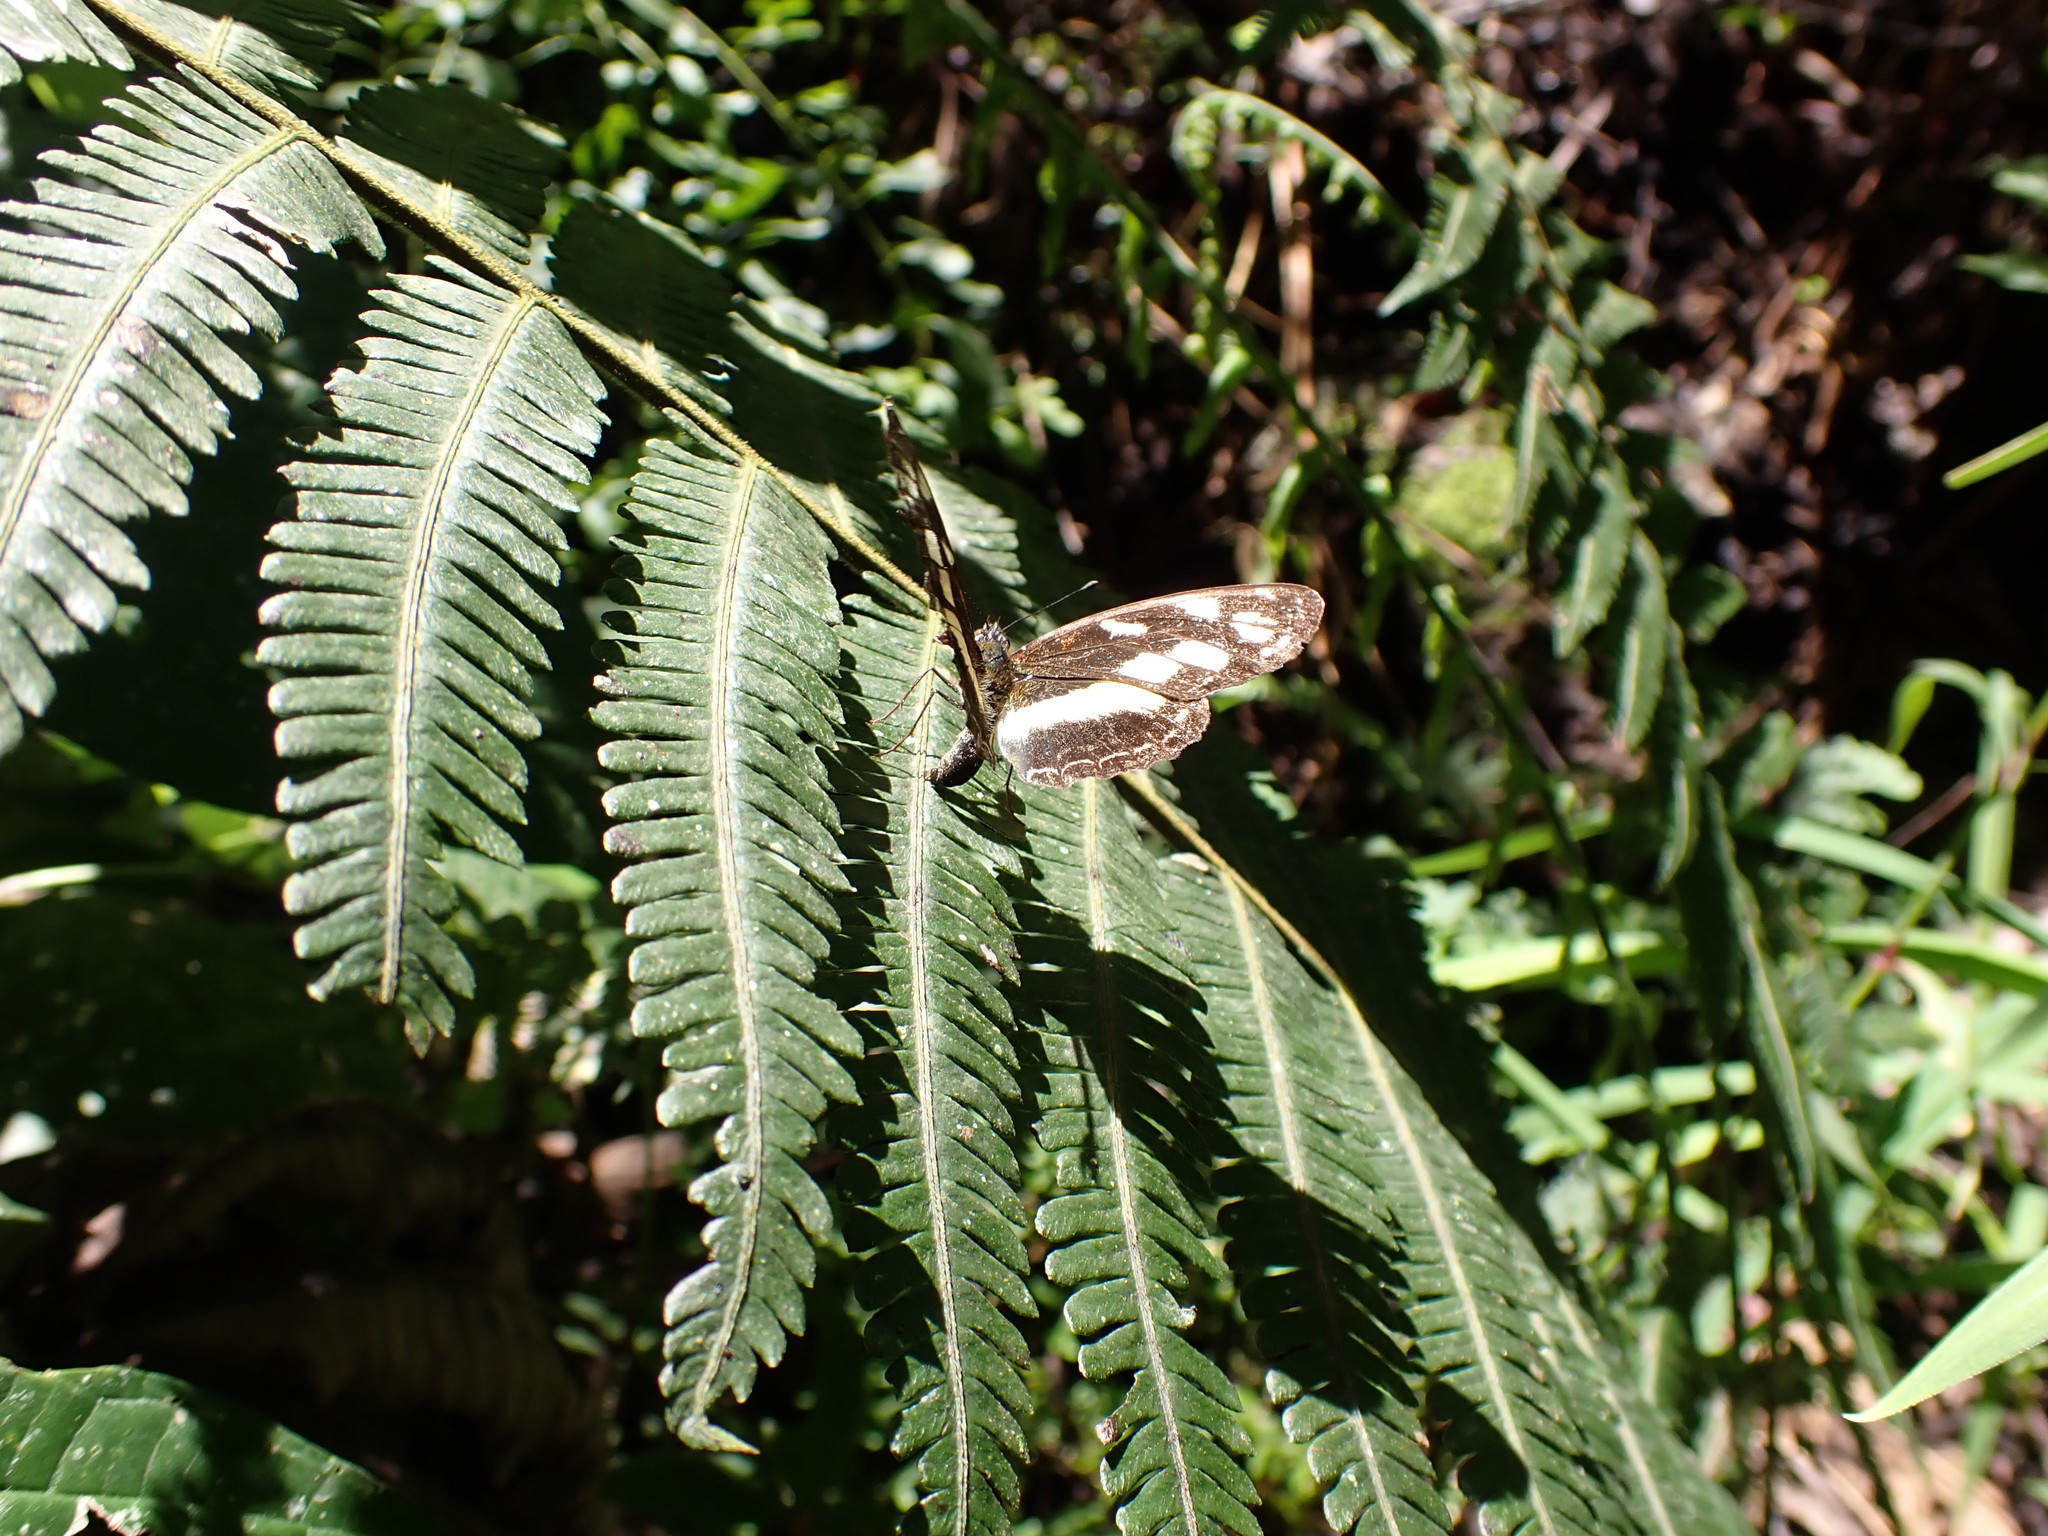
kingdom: Animalia
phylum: Arthropoda
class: Insecta
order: Lepidoptera
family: Nymphalidae
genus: Eresia
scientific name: Eresia letitia
